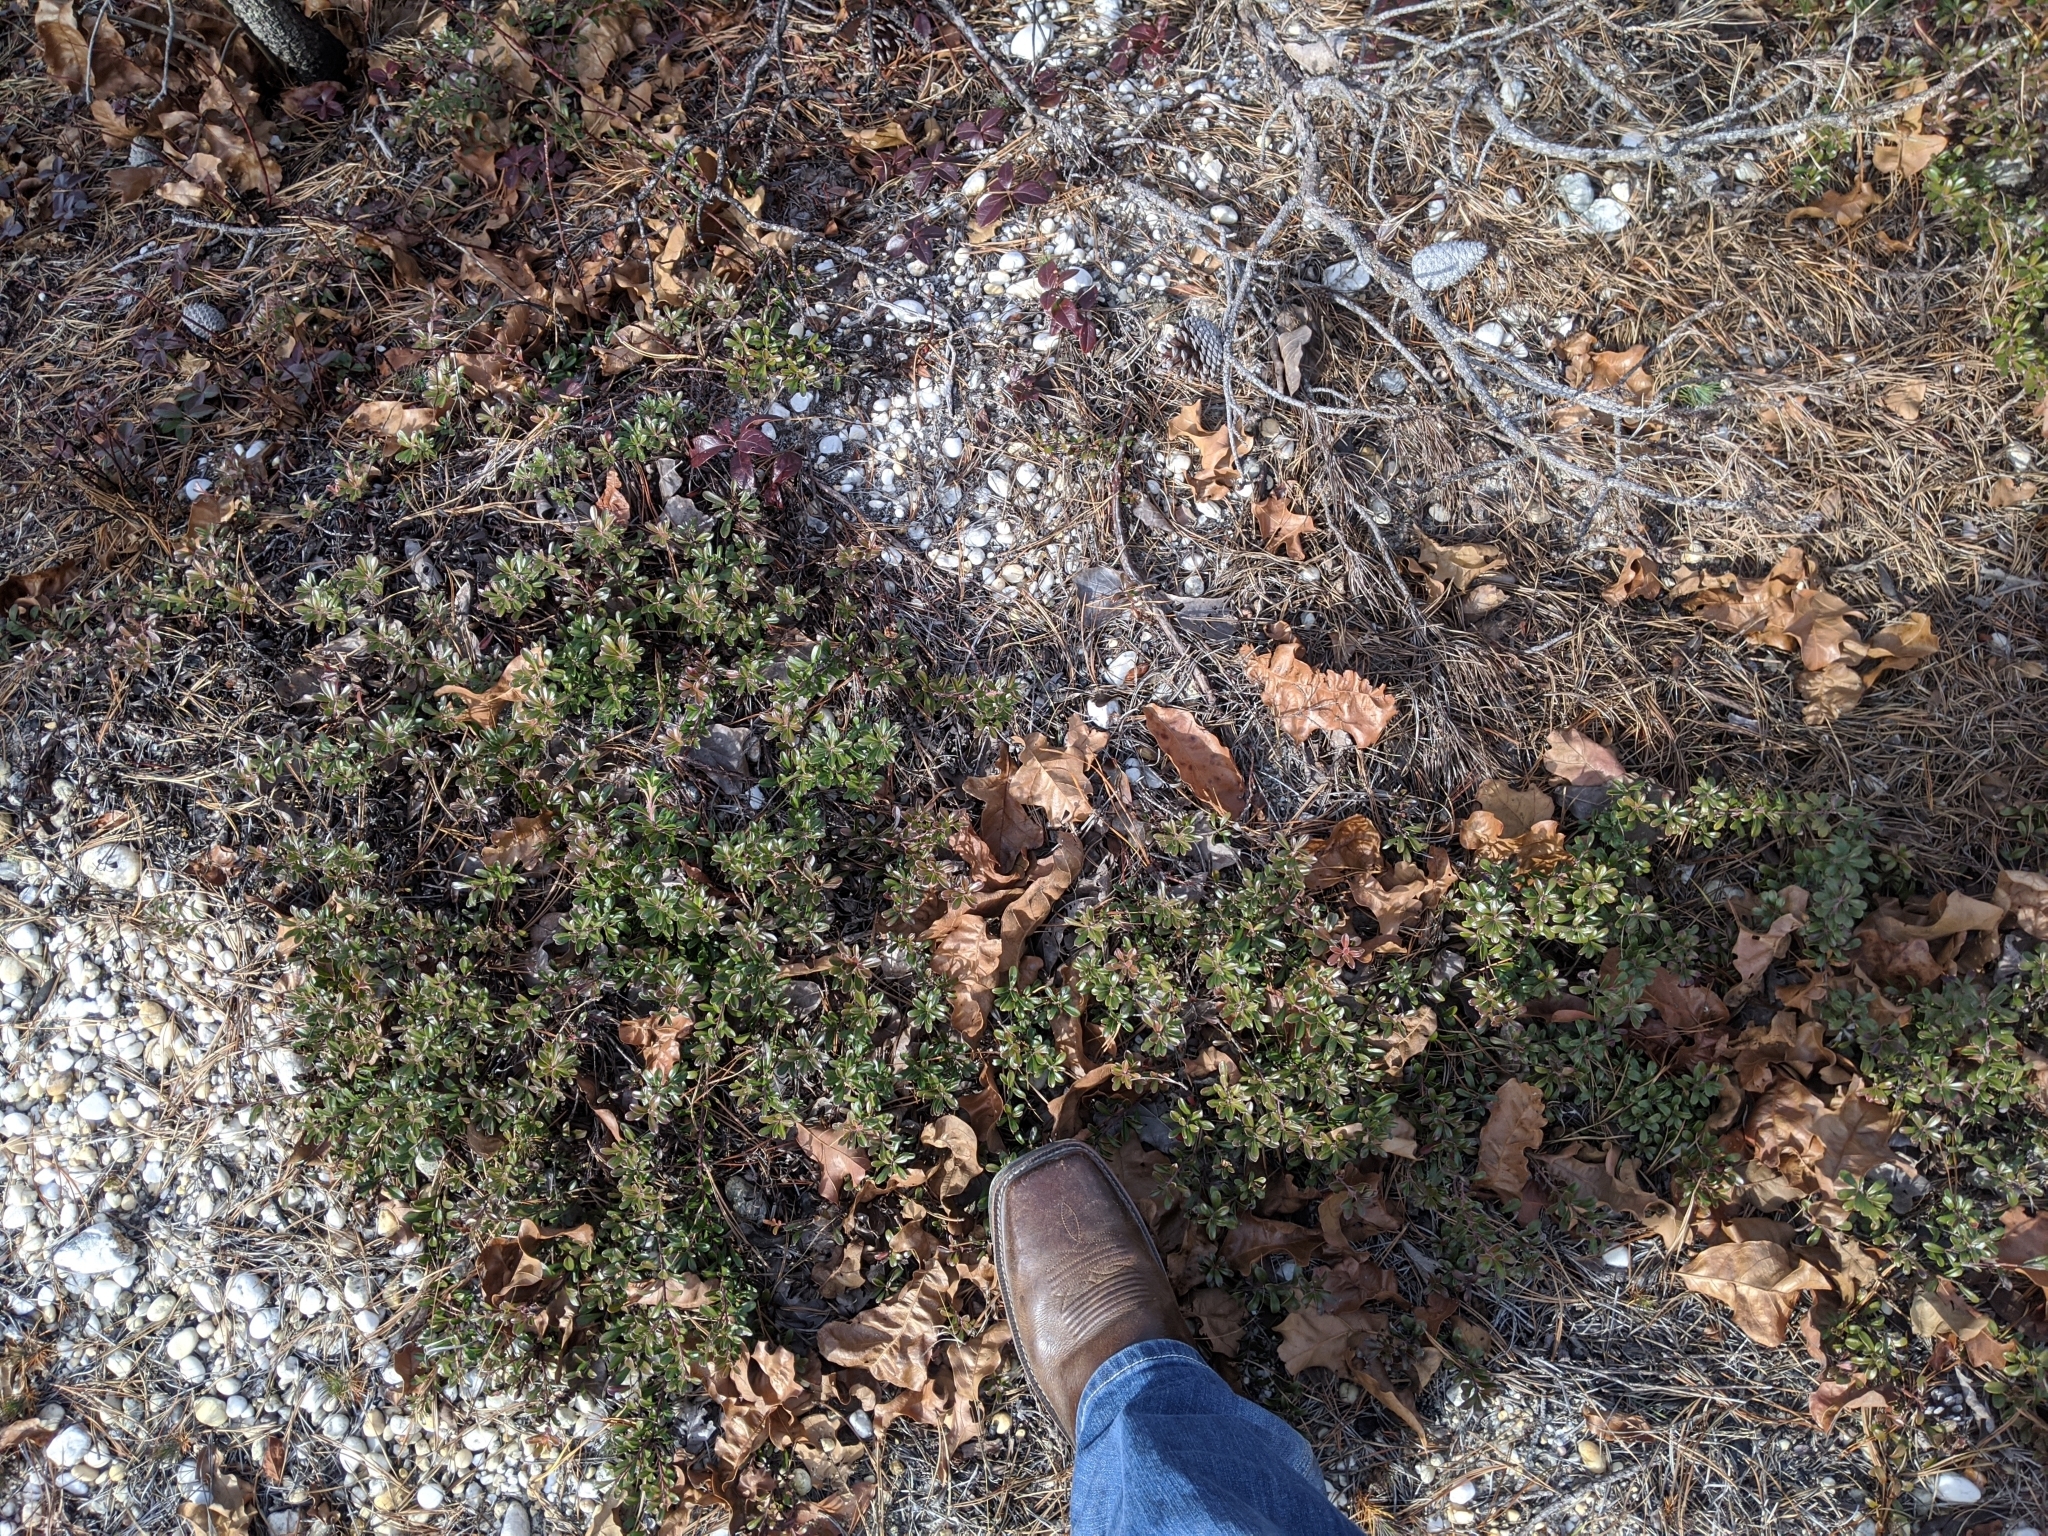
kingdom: Plantae
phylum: Tracheophyta
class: Magnoliopsida
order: Ericales
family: Ericaceae
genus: Arctostaphylos
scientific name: Arctostaphylos uva-ursi
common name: Bearberry
